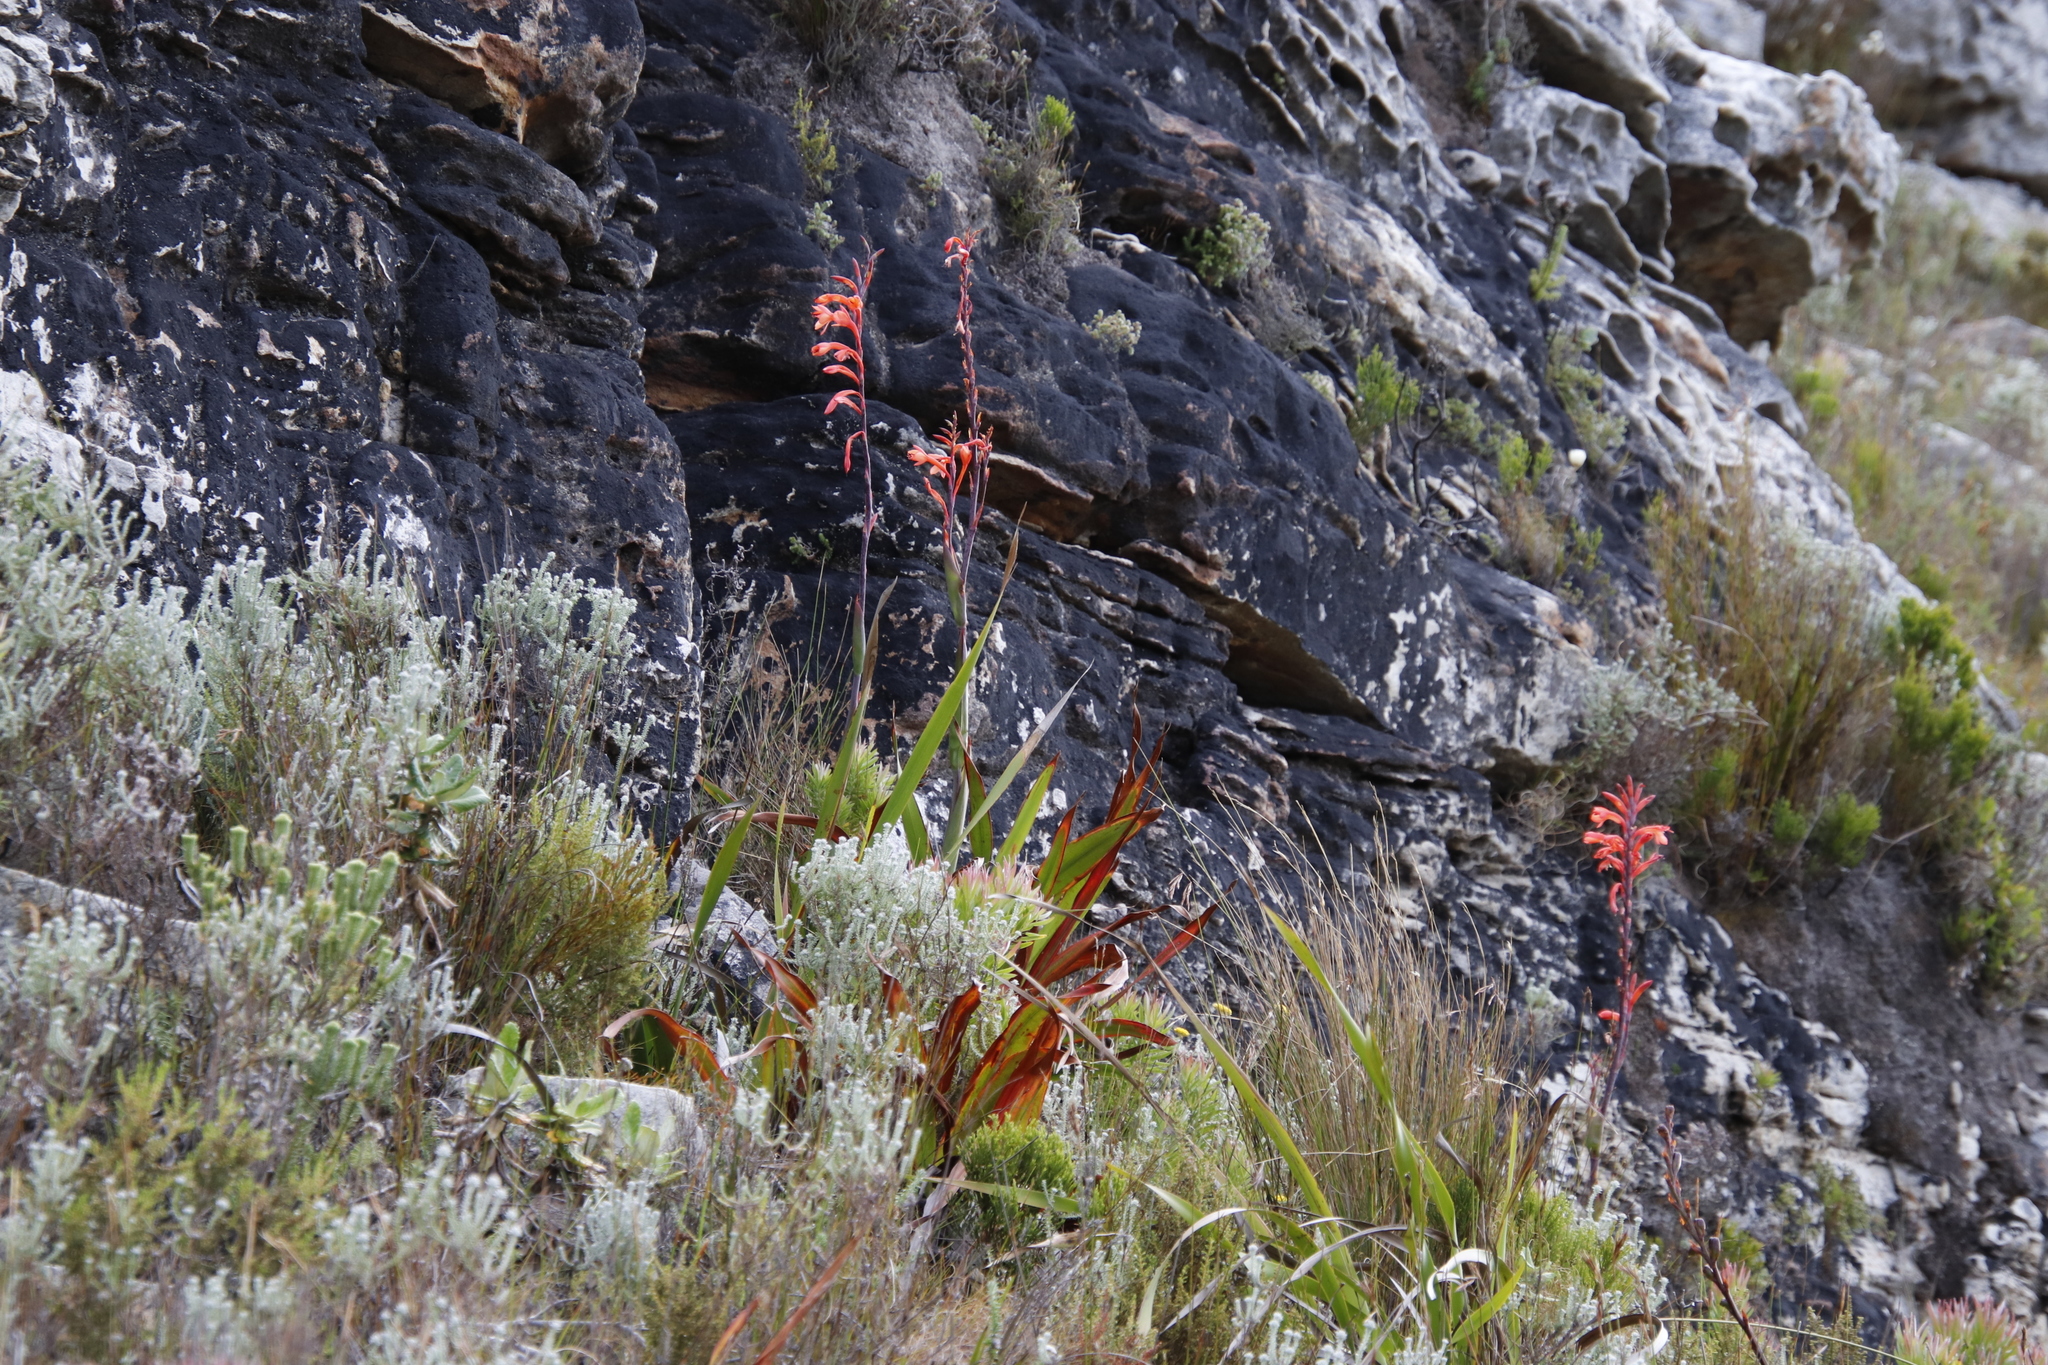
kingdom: Plantae
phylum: Tracheophyta
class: Liliopsida
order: Asparagales
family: Iridaceae
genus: Watsonia
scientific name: Watsonia tabularis
